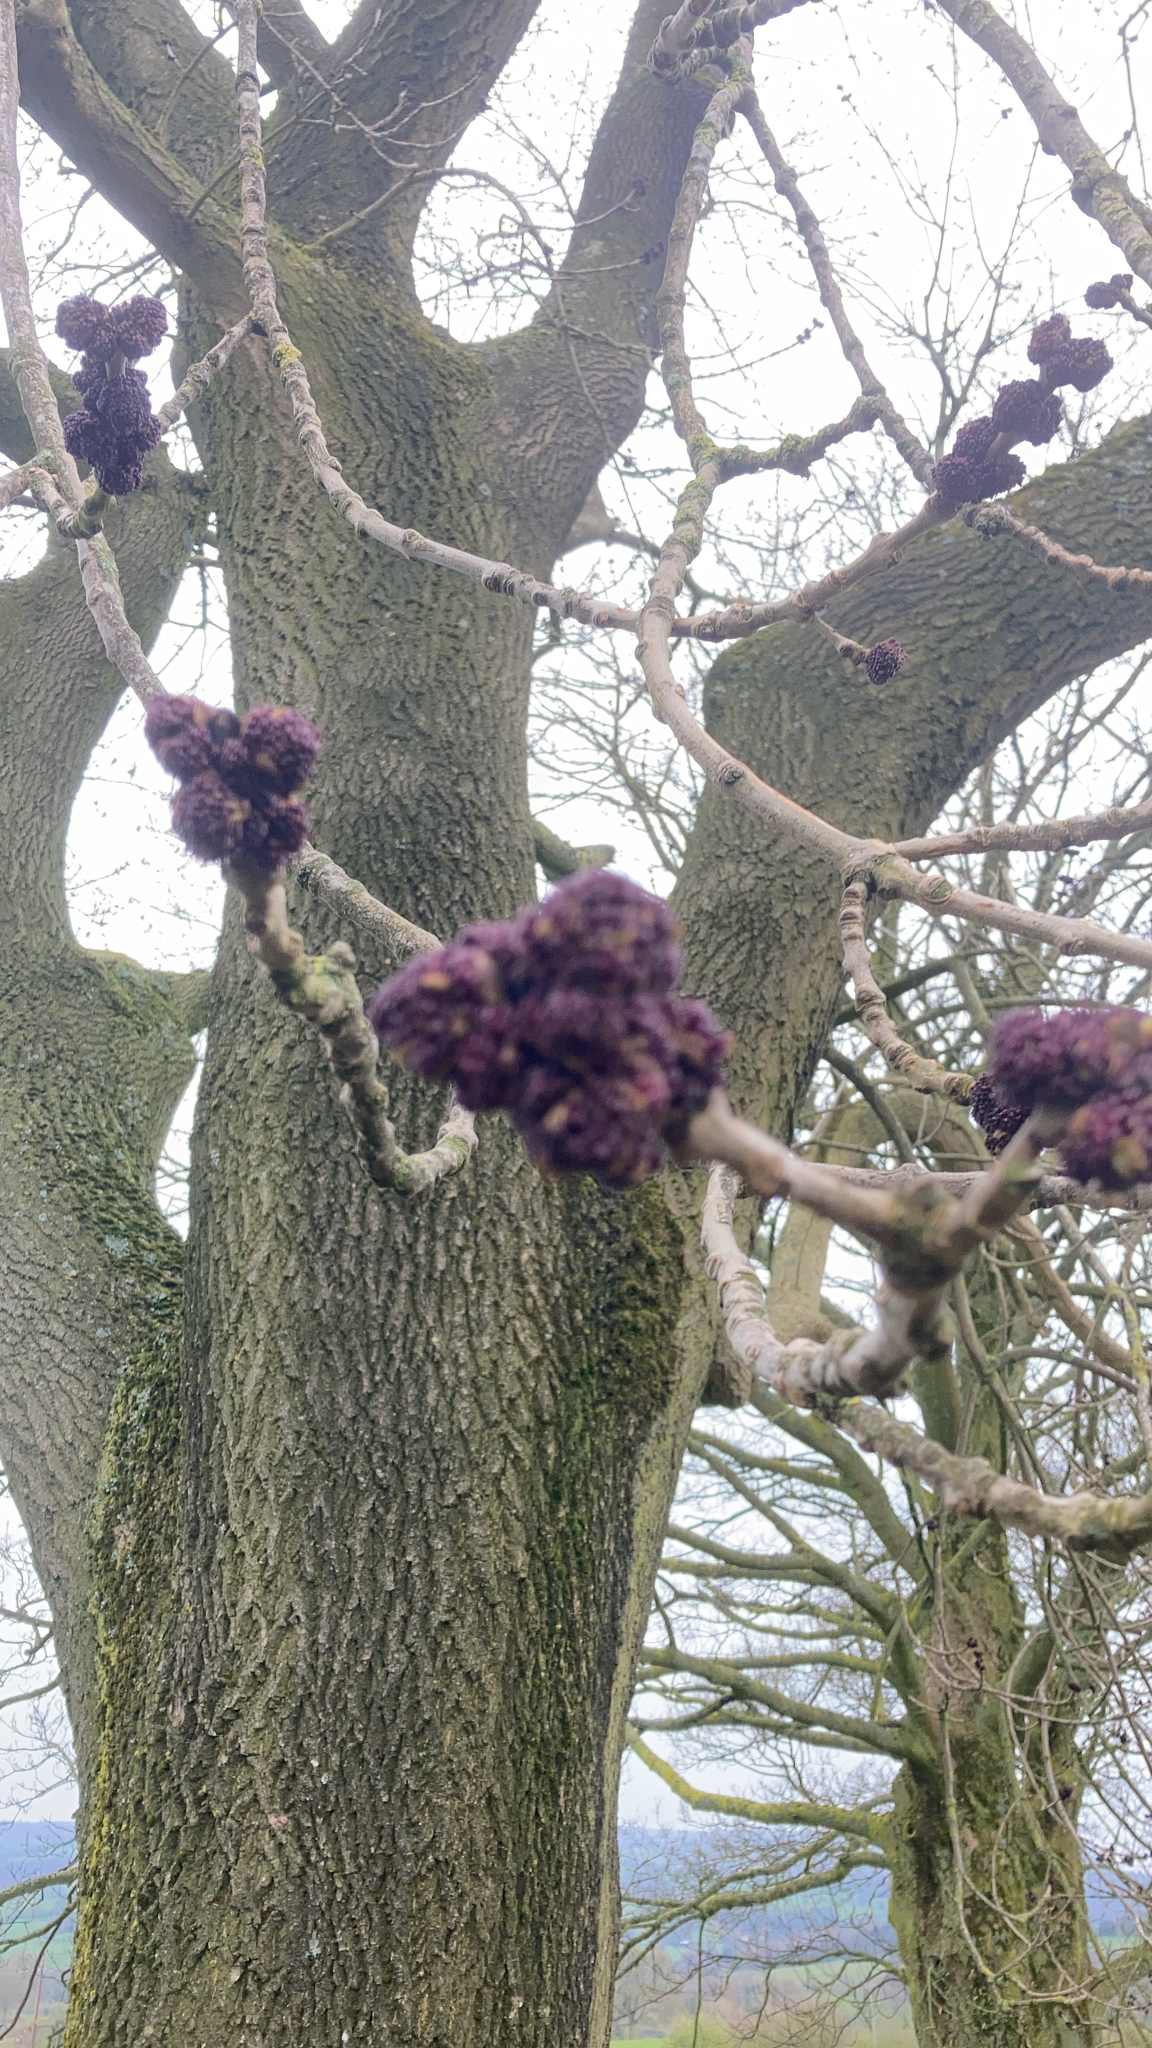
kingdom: Plantae
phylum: Tracheophyta
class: Magnoliopsida
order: Lamiales
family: Oleaceae
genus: Fraxinus
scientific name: Fraxinus excelsior
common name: European ash
